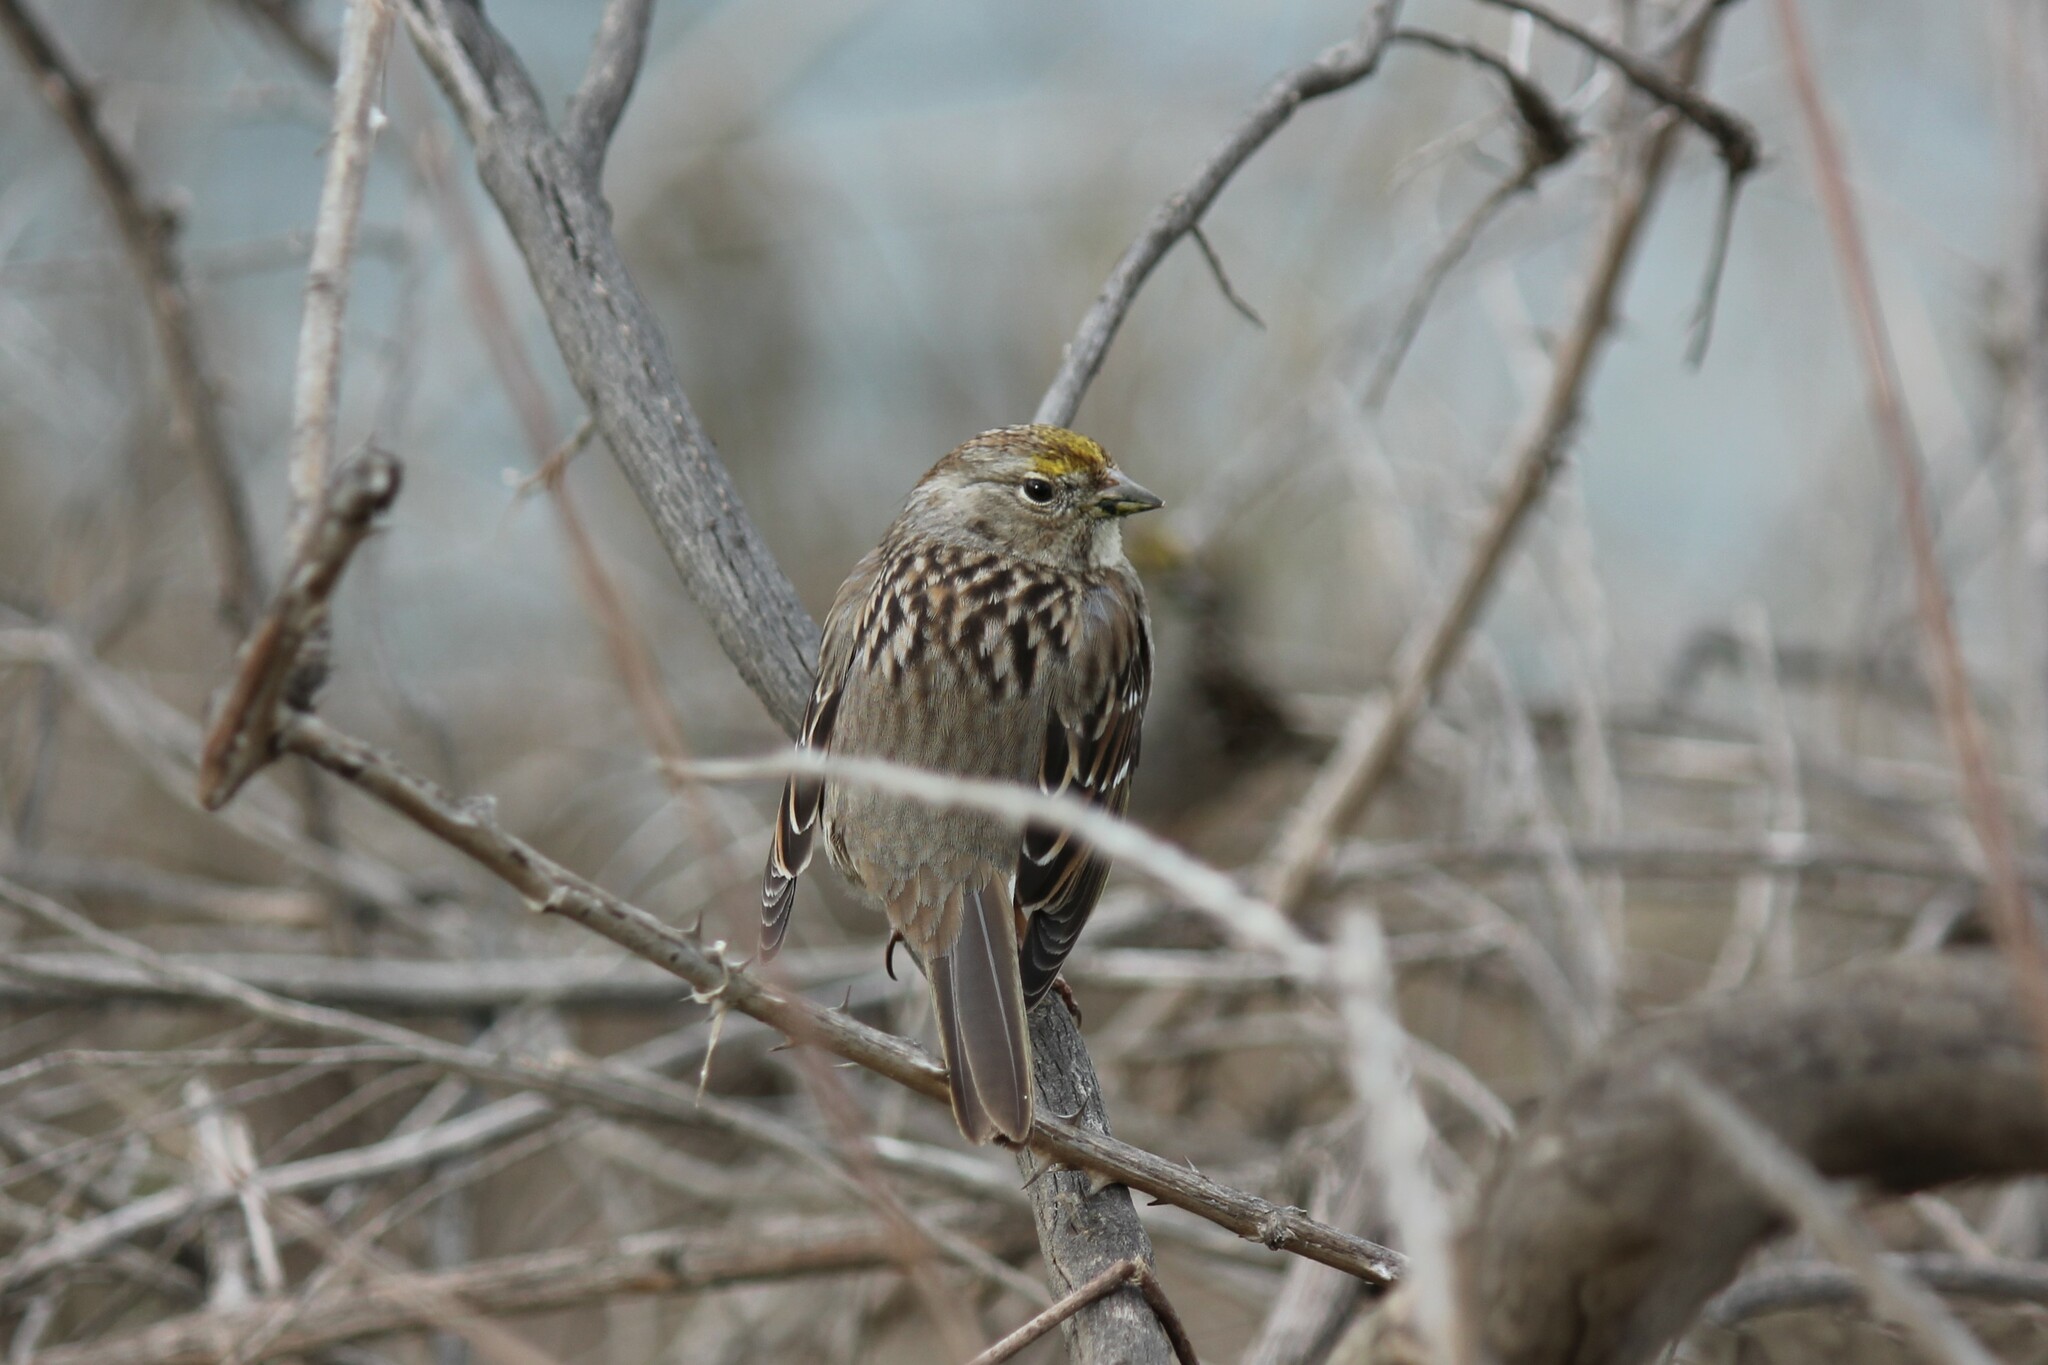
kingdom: Animalia
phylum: Chordata
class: Aves
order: Passeriformes
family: Passerellidae
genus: Zonotrichia
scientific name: Zonotrichia atricapilla
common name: Golden-crowned sparrow
